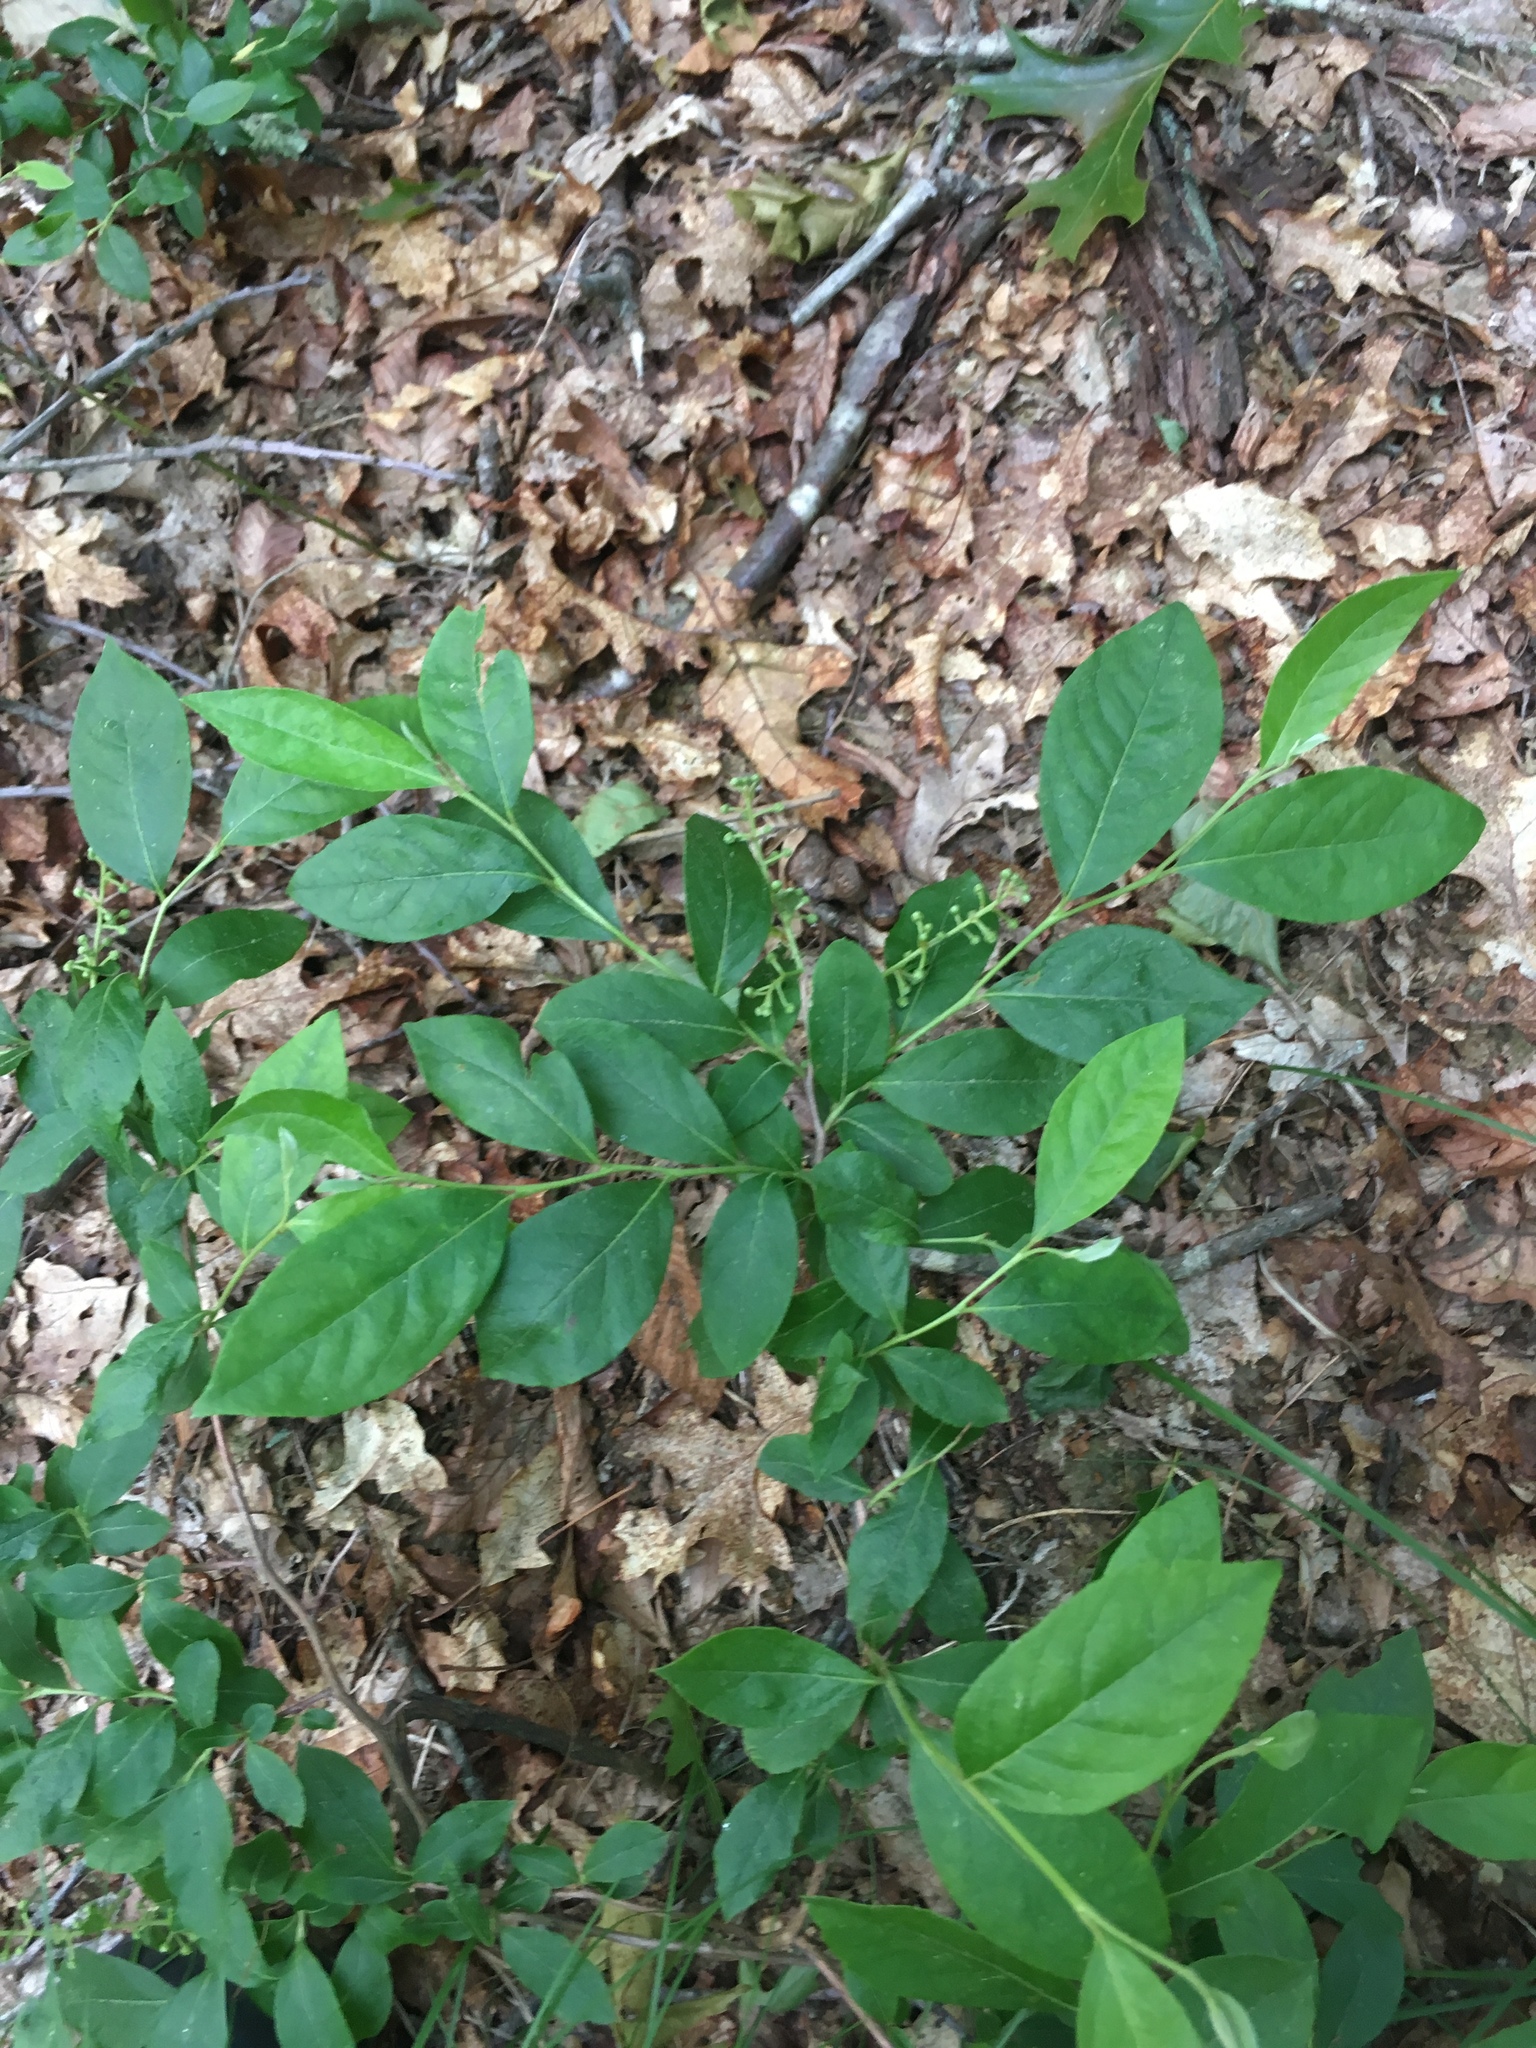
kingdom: Plantae
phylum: Tracheophyta
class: Magnoliopsida
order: Ericales
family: Ericaceae
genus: Lyonia
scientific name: Lyonia ligustrina
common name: Maleberry
